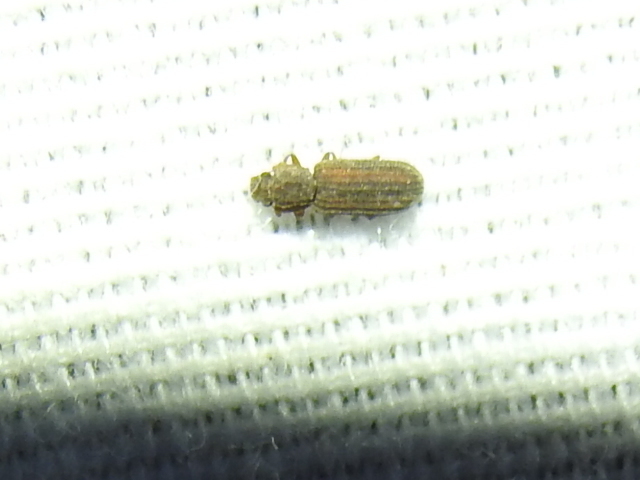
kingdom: Animalia
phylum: Arthropoda
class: Insecta
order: Coleoptera
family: Zopheridae
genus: Bitoma
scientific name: Bitoma vittata
